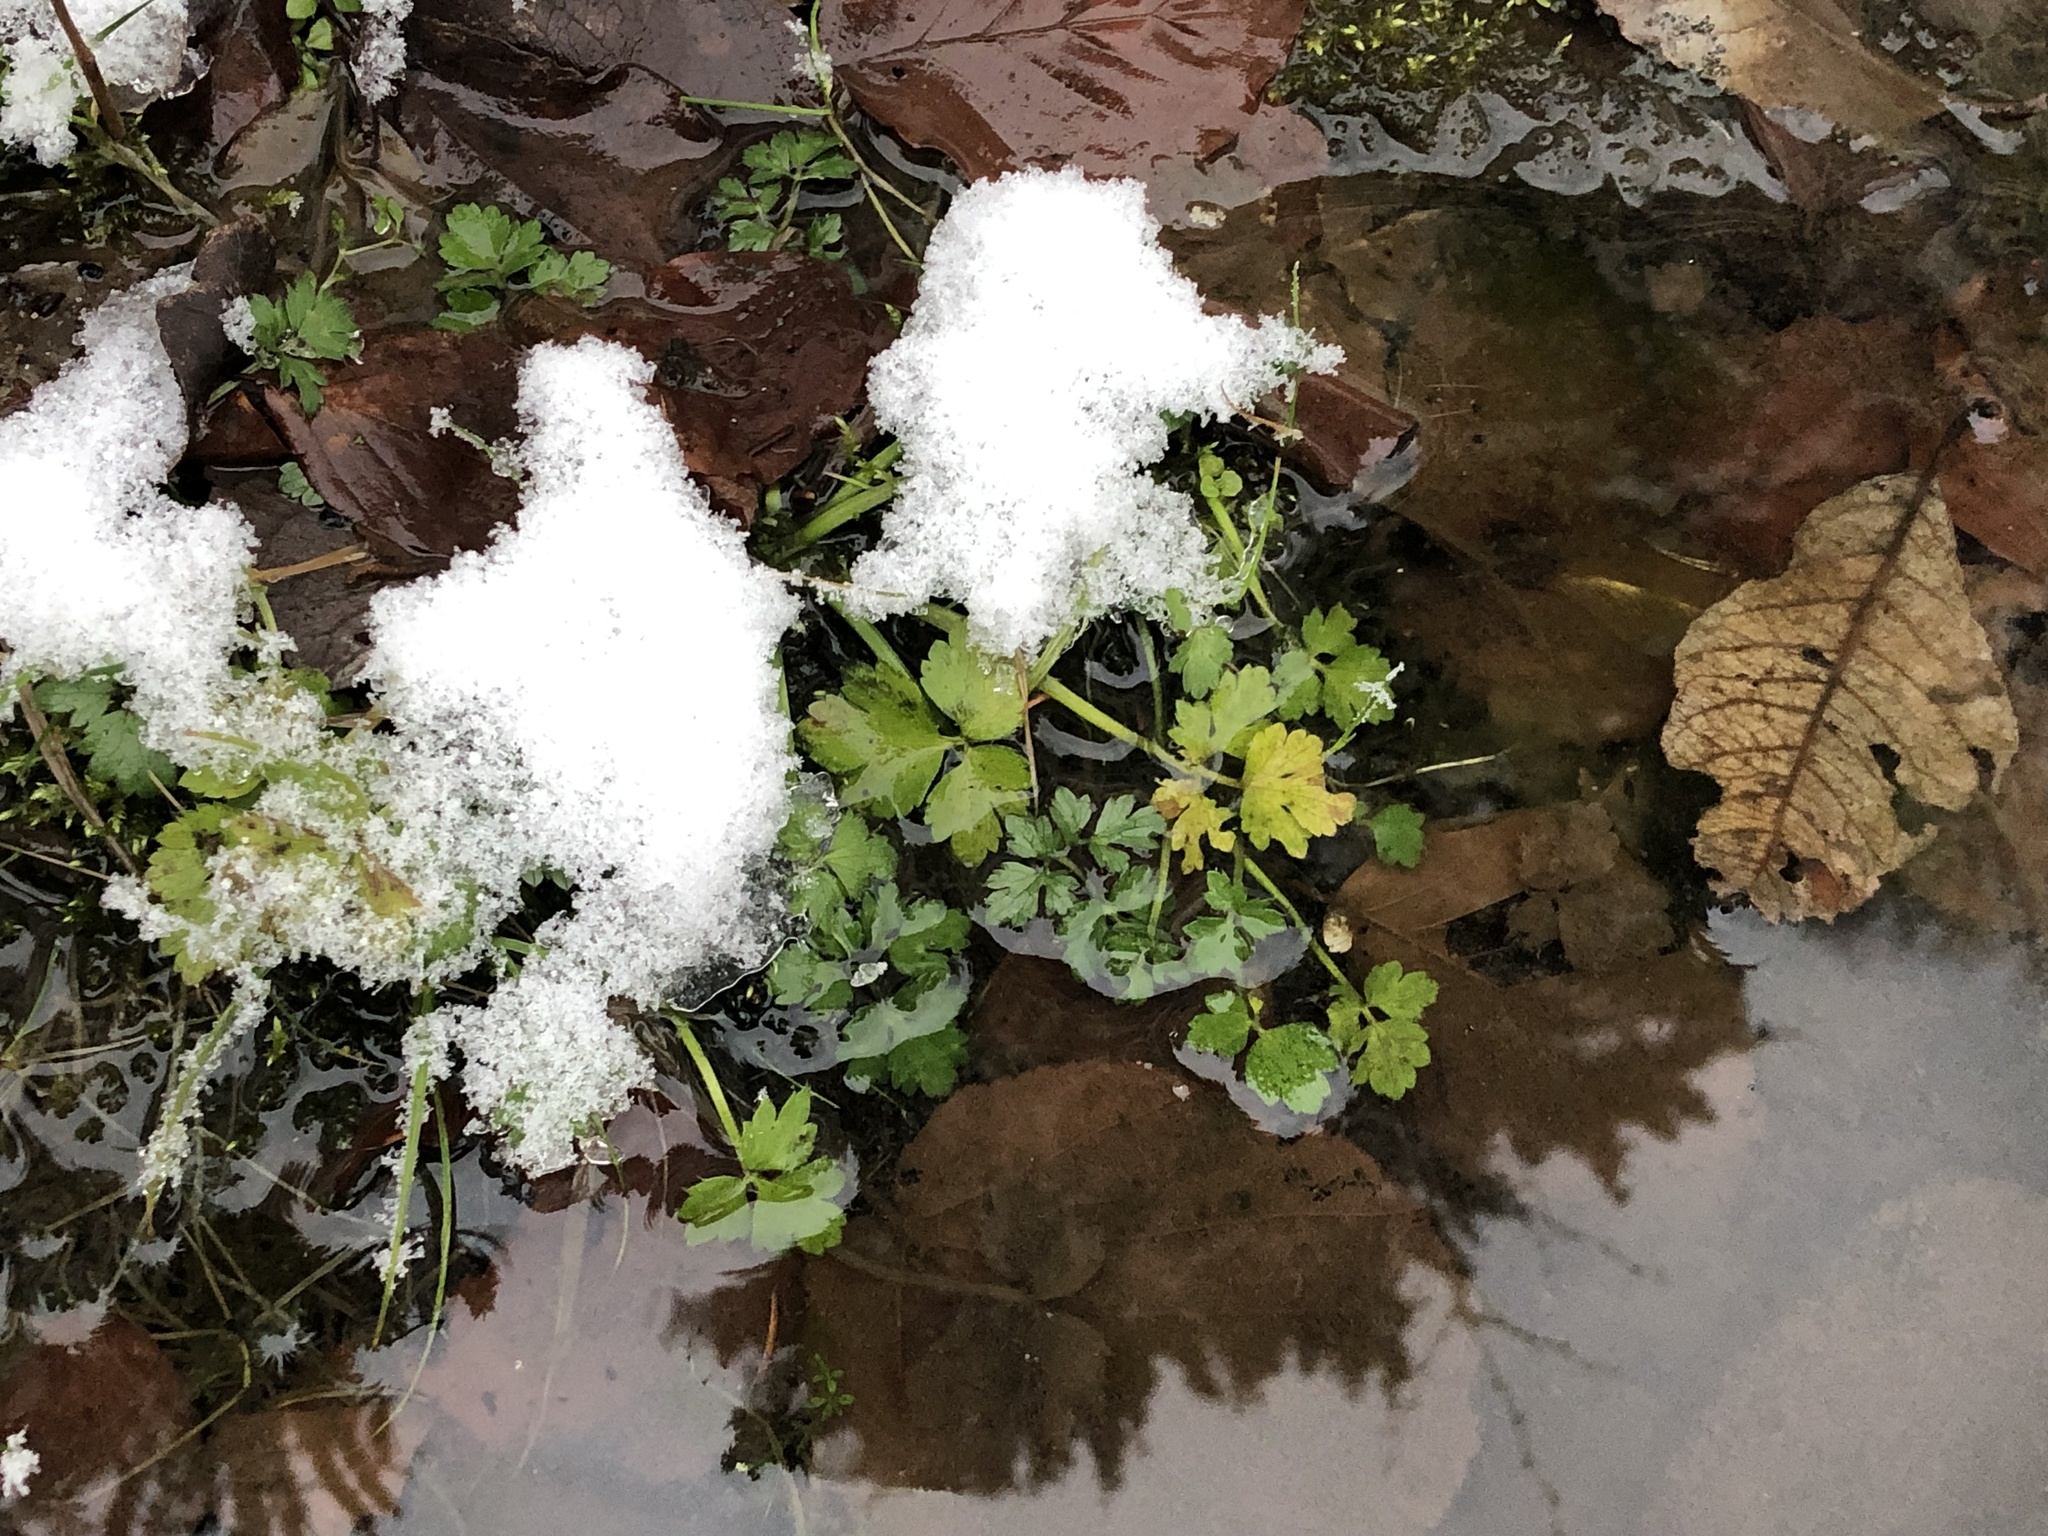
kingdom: Plantae
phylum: Tracheophyta
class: Magnoliopsida
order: Ranunculales
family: Ranunculaceae
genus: Ranunculus
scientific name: Ranunculus repens
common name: Creeping buttercup
